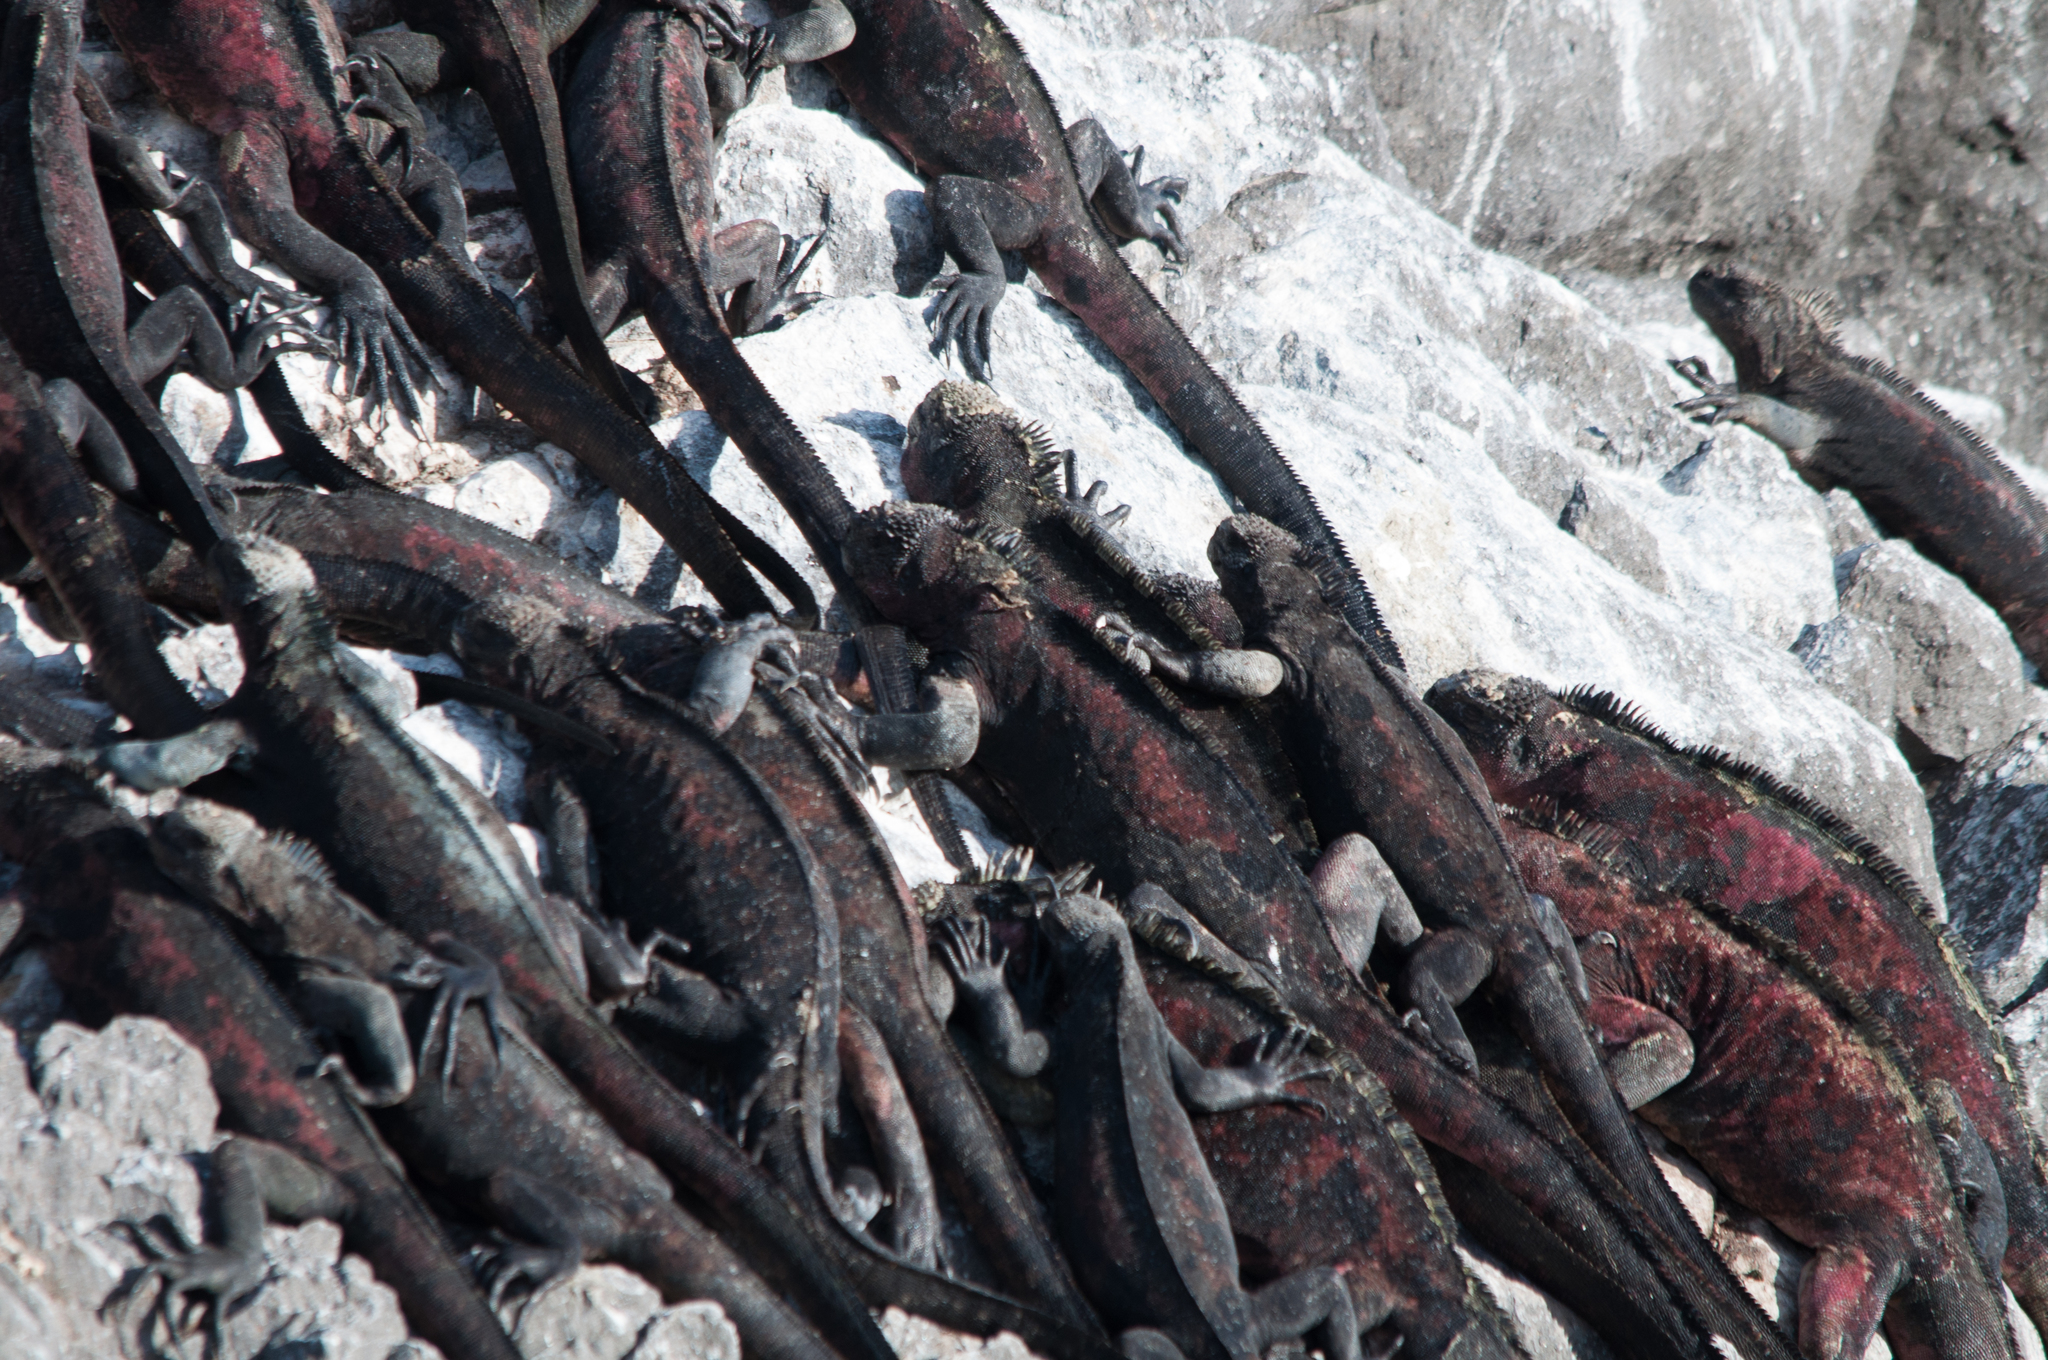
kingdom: Animalia
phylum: Chordata
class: Squamata
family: Iguanidae
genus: Amblyrhynchus
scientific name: Amblyrhynchus cristatus
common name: Marine iguana
